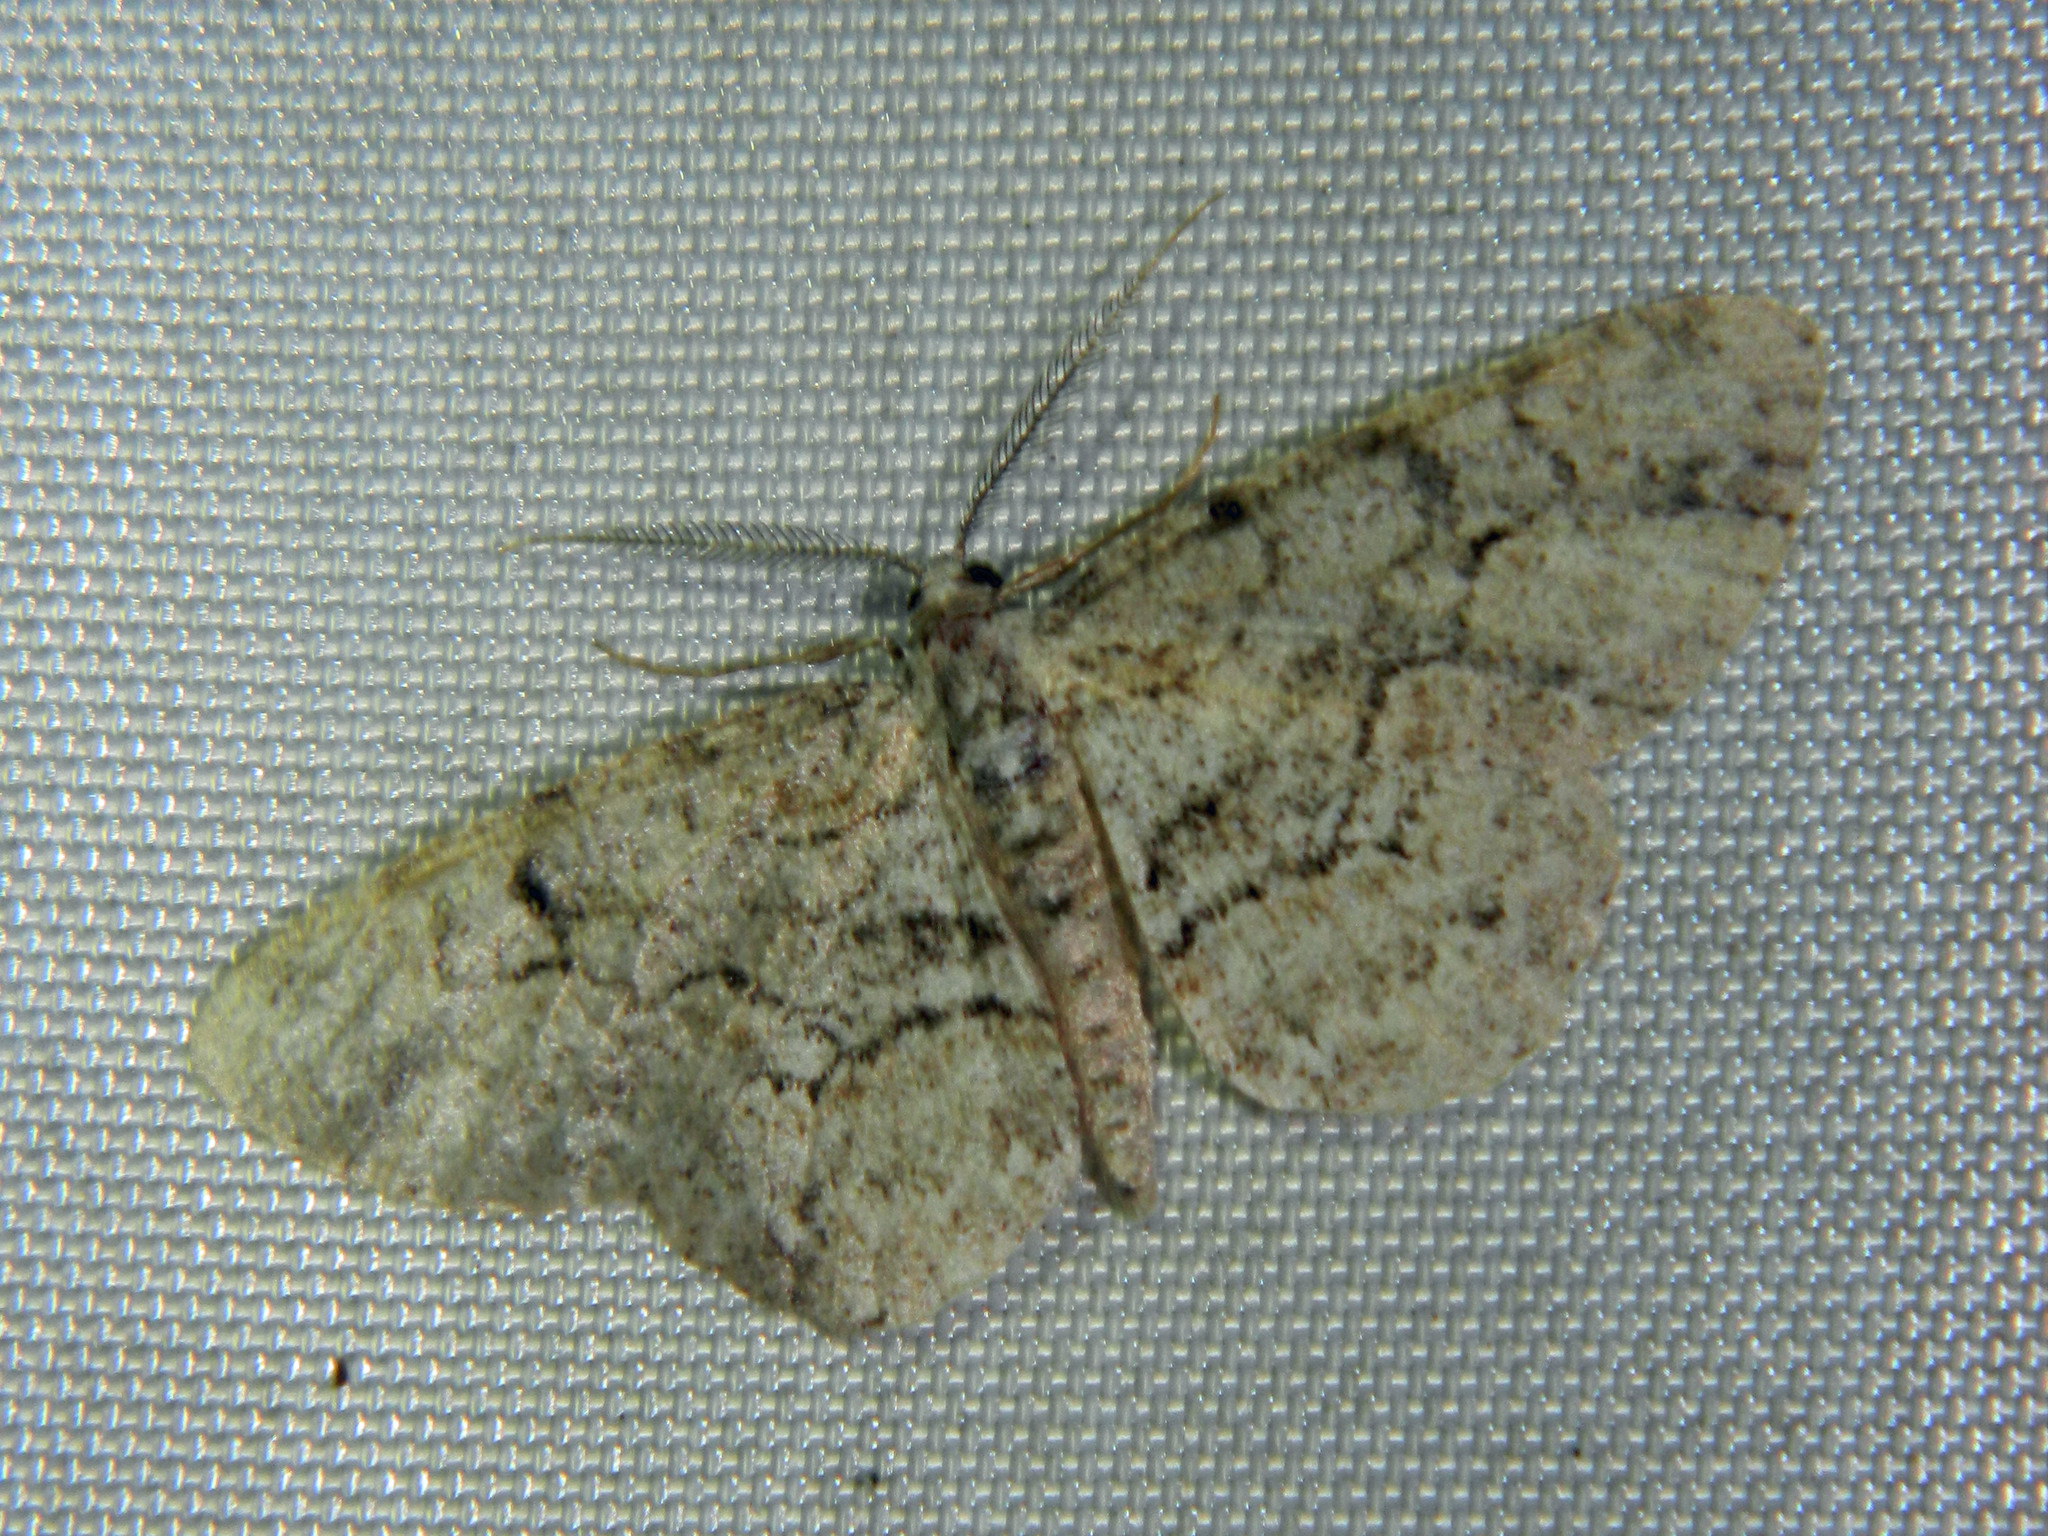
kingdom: Animalia
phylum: Arthropoda
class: Insecta
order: Lepidoptera
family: Geometridae
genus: Iridopsis
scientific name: Iridopsis ephyraria
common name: Pale-winged gray
